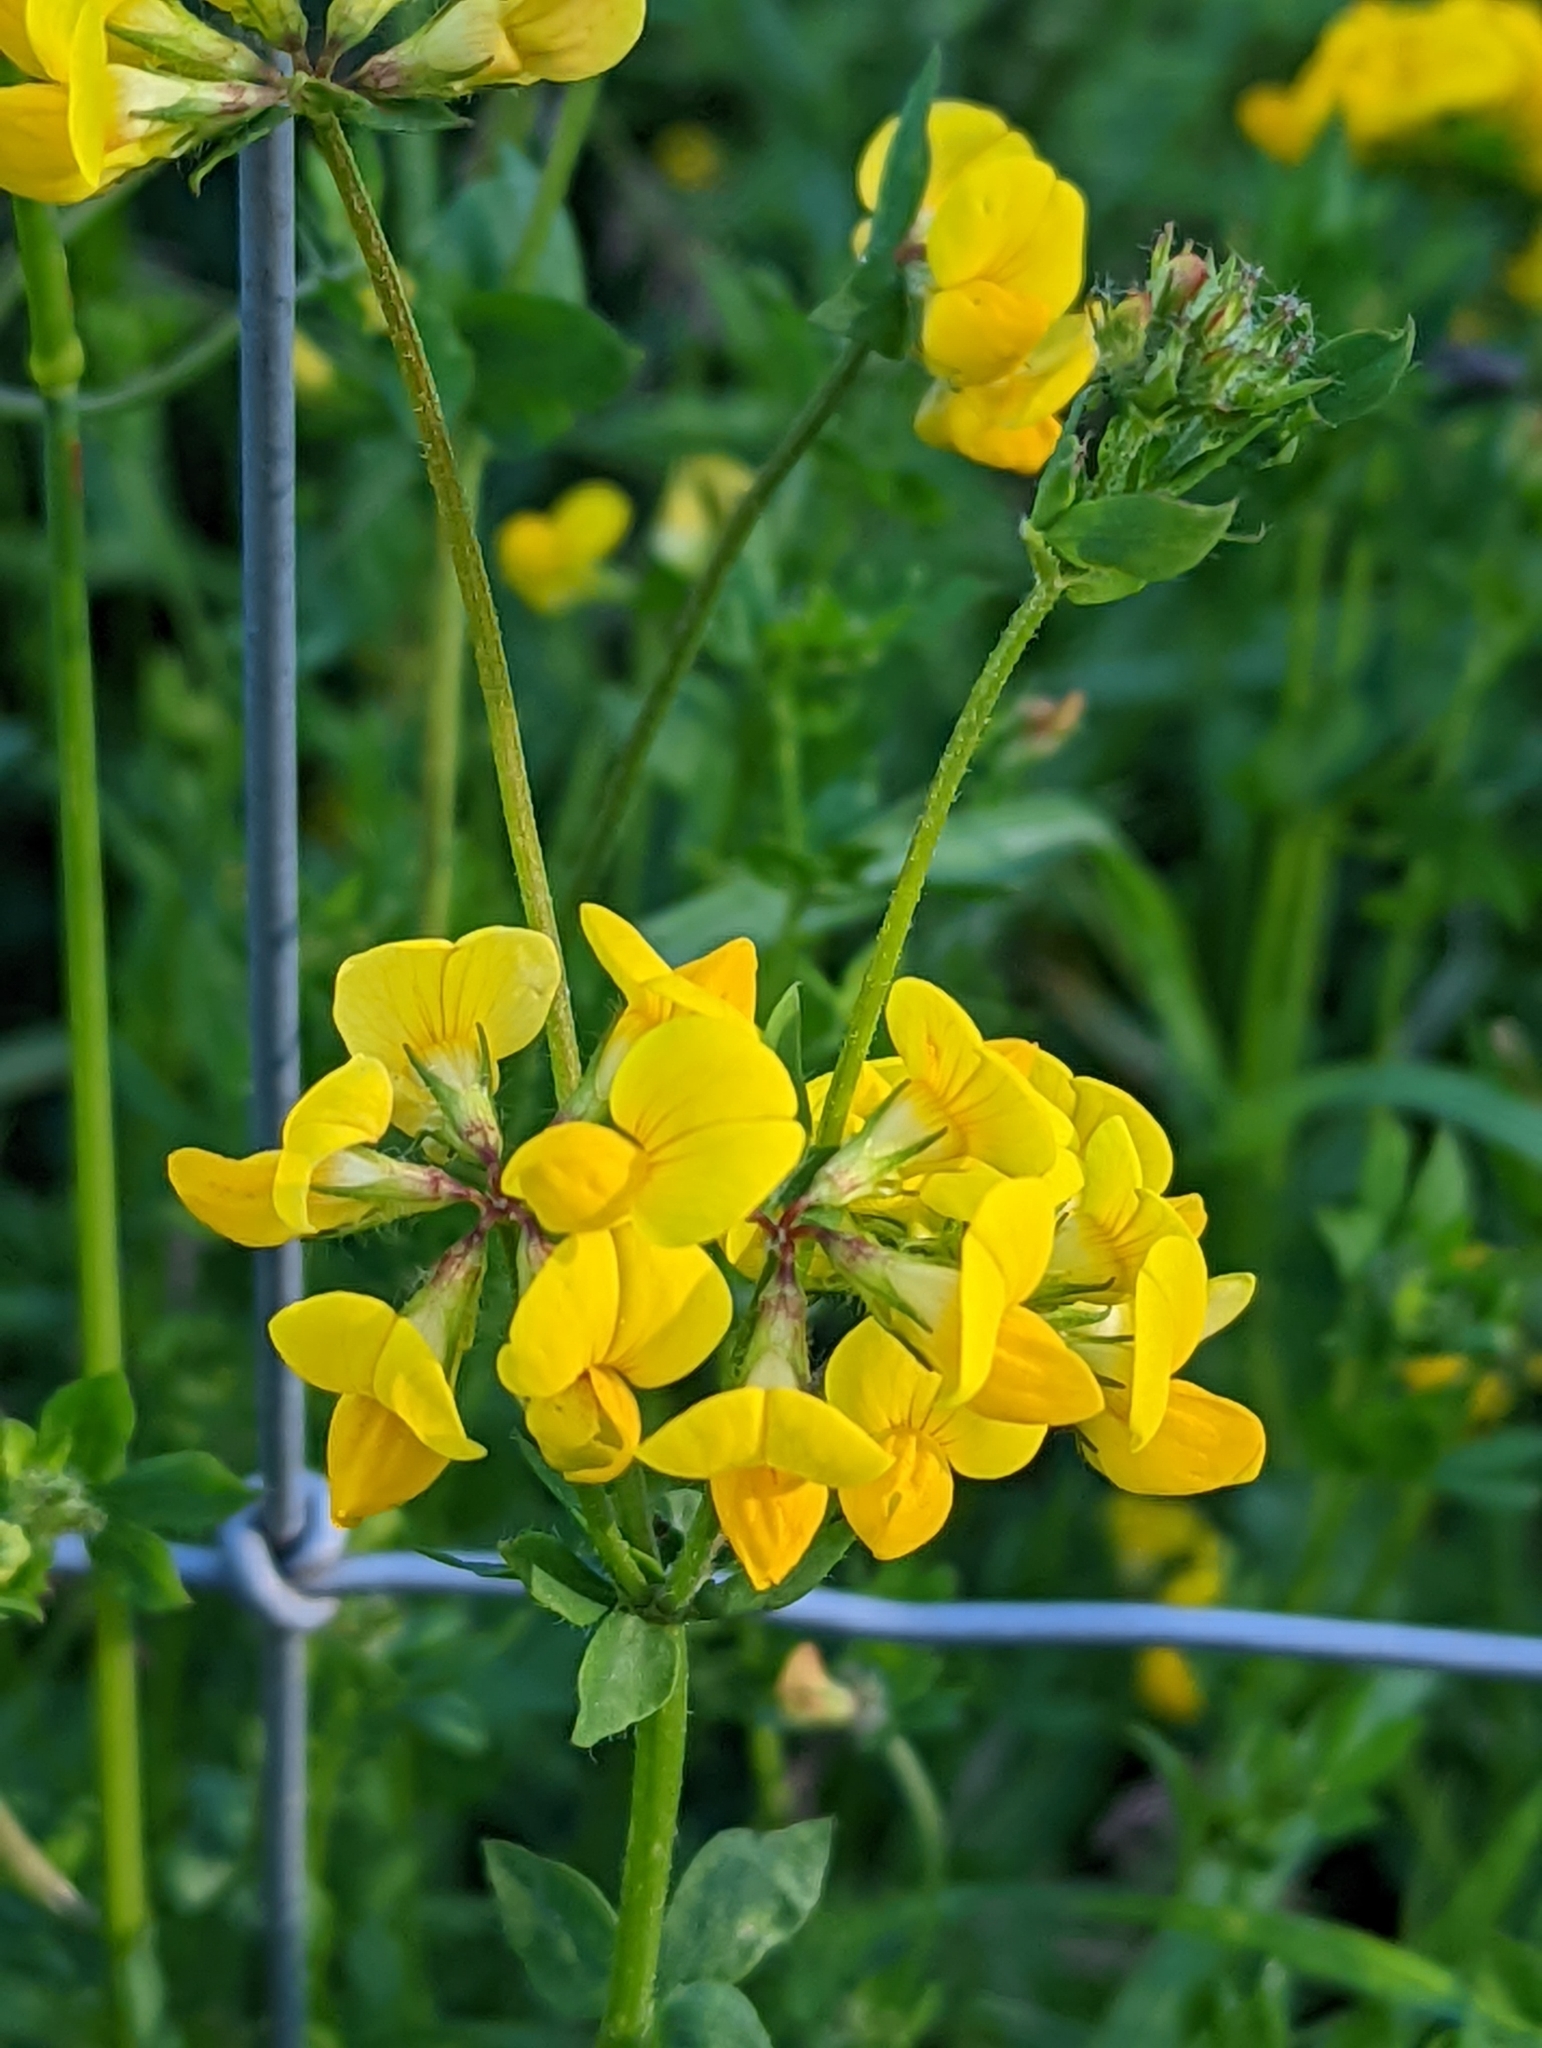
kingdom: Plantae
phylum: Tracheophyta
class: Magnoliopsida
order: Fabales
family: Fabaceae
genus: Lotus
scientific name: Lotus pedunculatus
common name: Greater birdsfoot-trefoil
